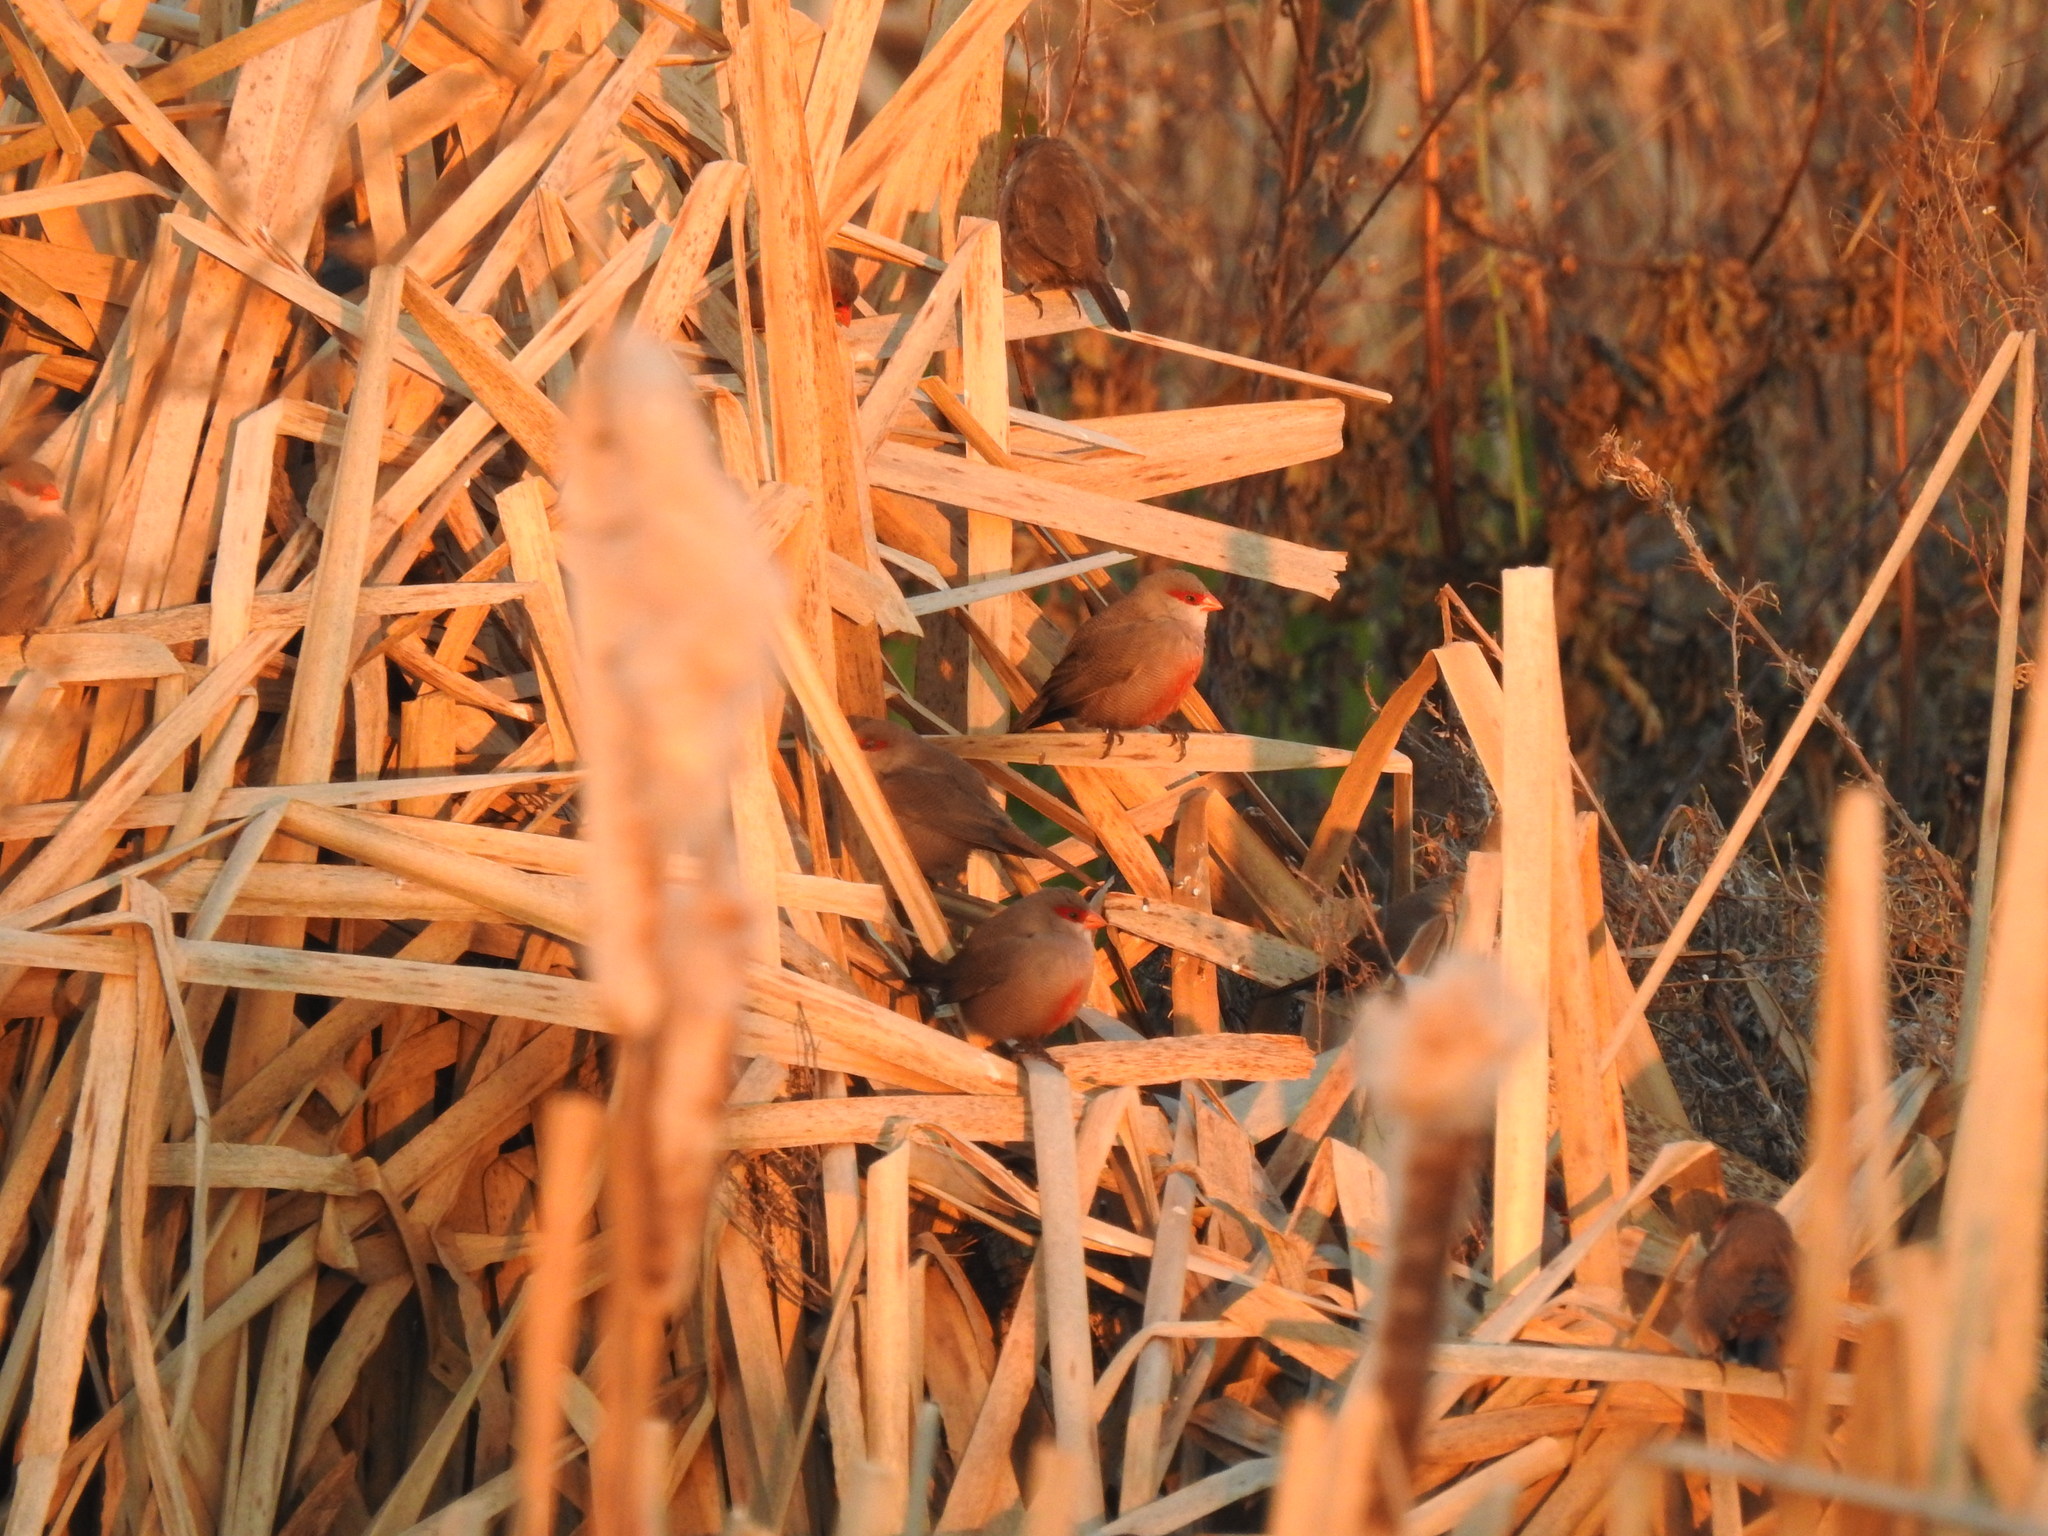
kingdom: Animalia
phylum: Chordata
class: Aves
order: Passeriformes
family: Estrildidae
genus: Estrilda
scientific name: Estrilda astrild
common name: Common waxbill
